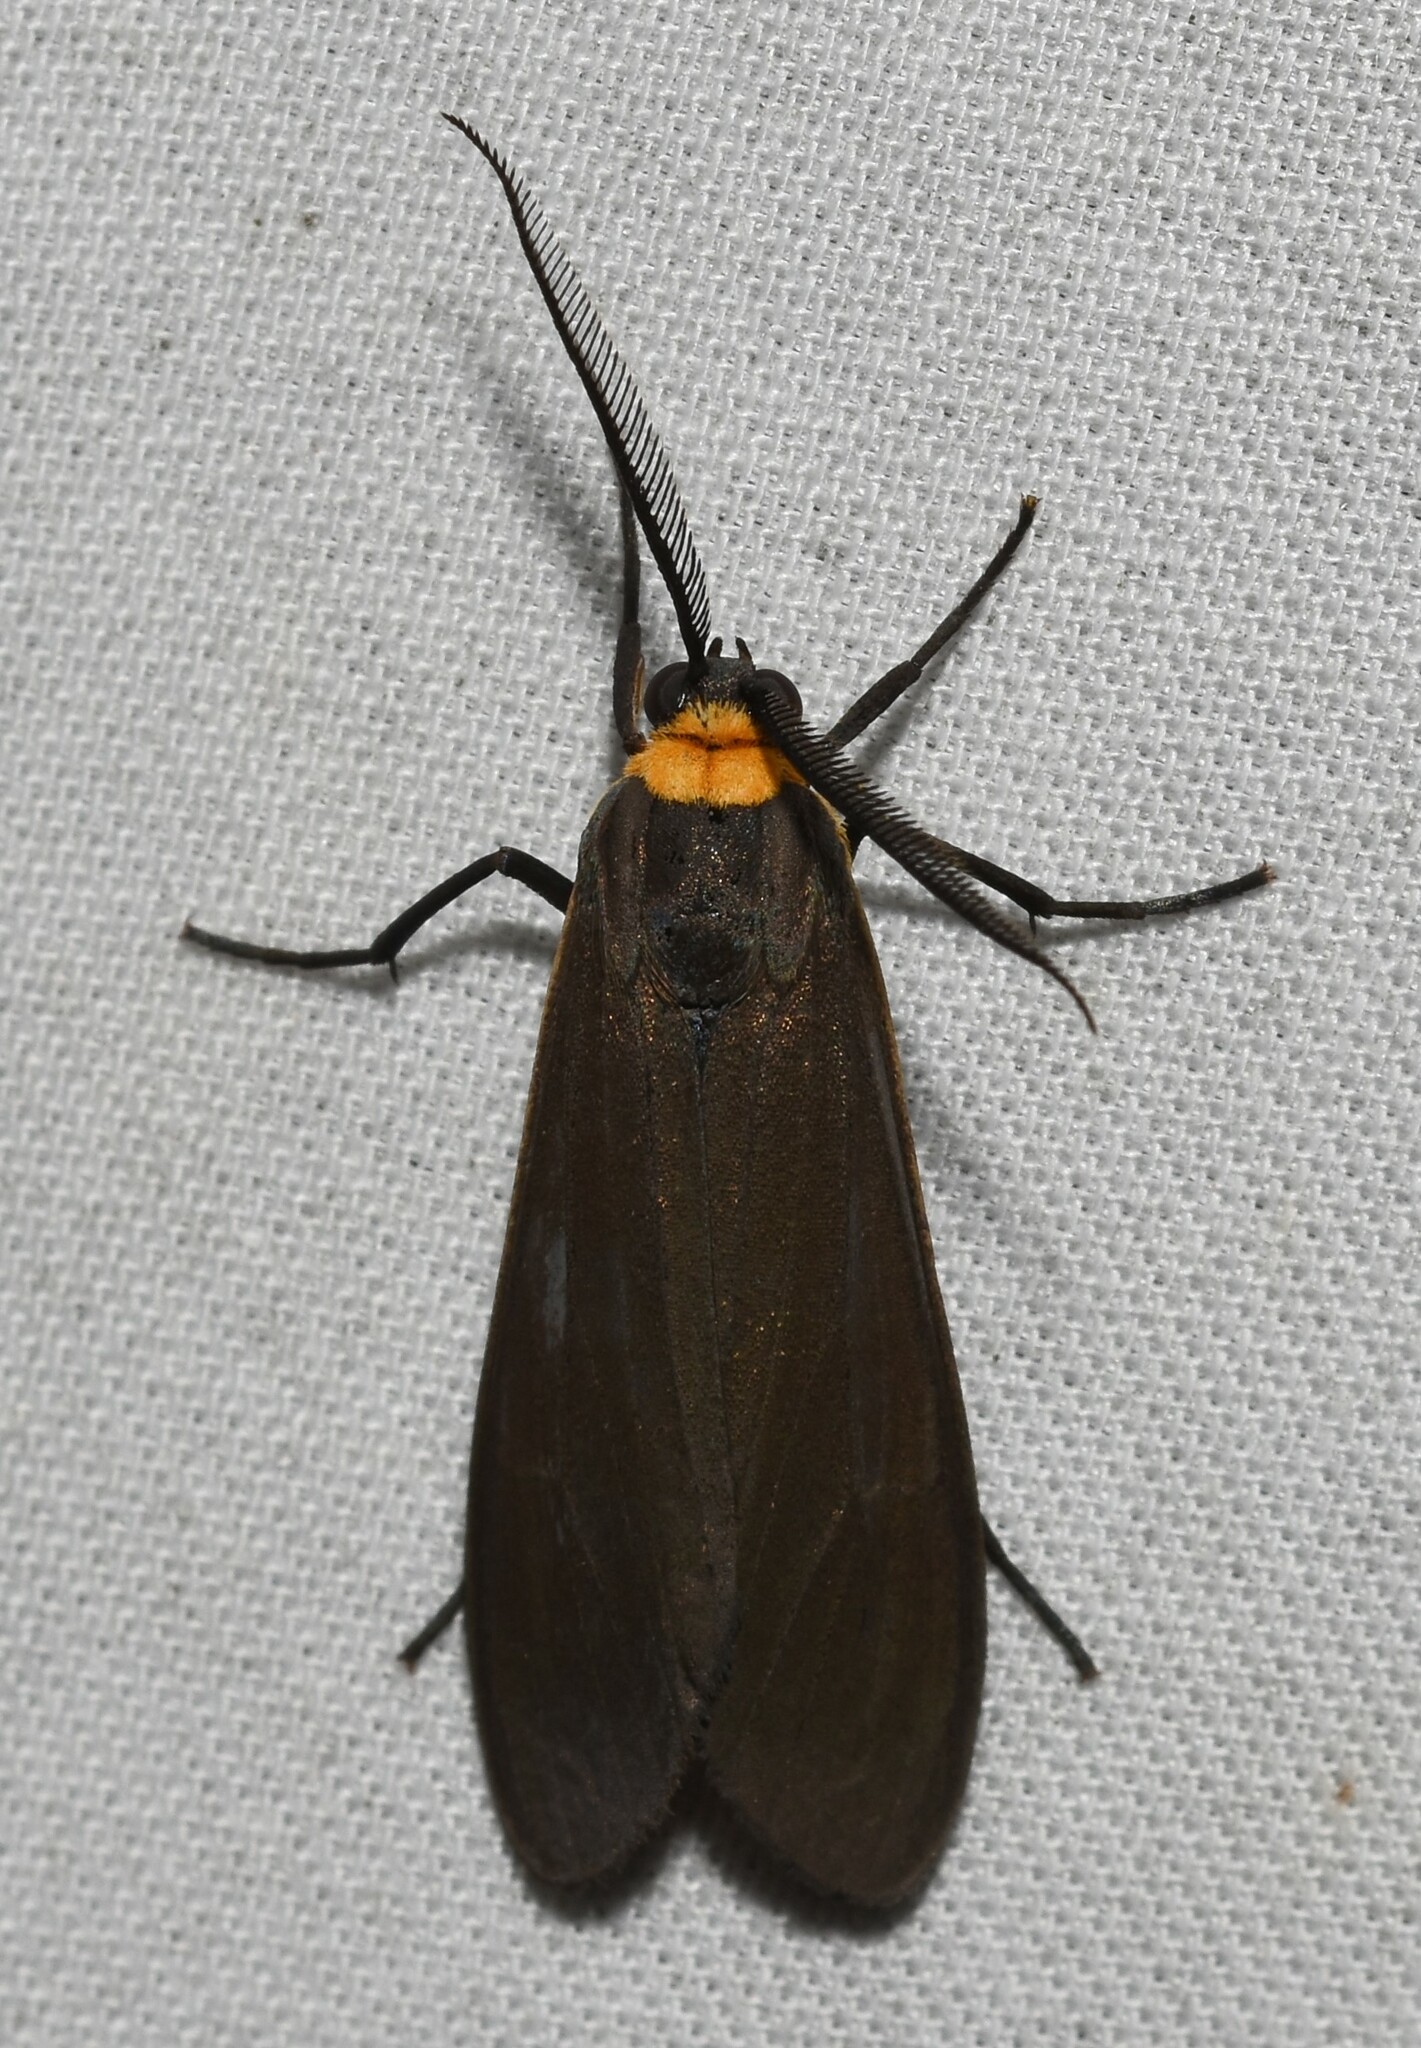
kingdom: Animalia
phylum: Arthropoda
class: Insecta
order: Lepidoptera
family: Erebidae
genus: Cisseps
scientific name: Cisseps fulvicollis
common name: Yellow-collared scape moth
